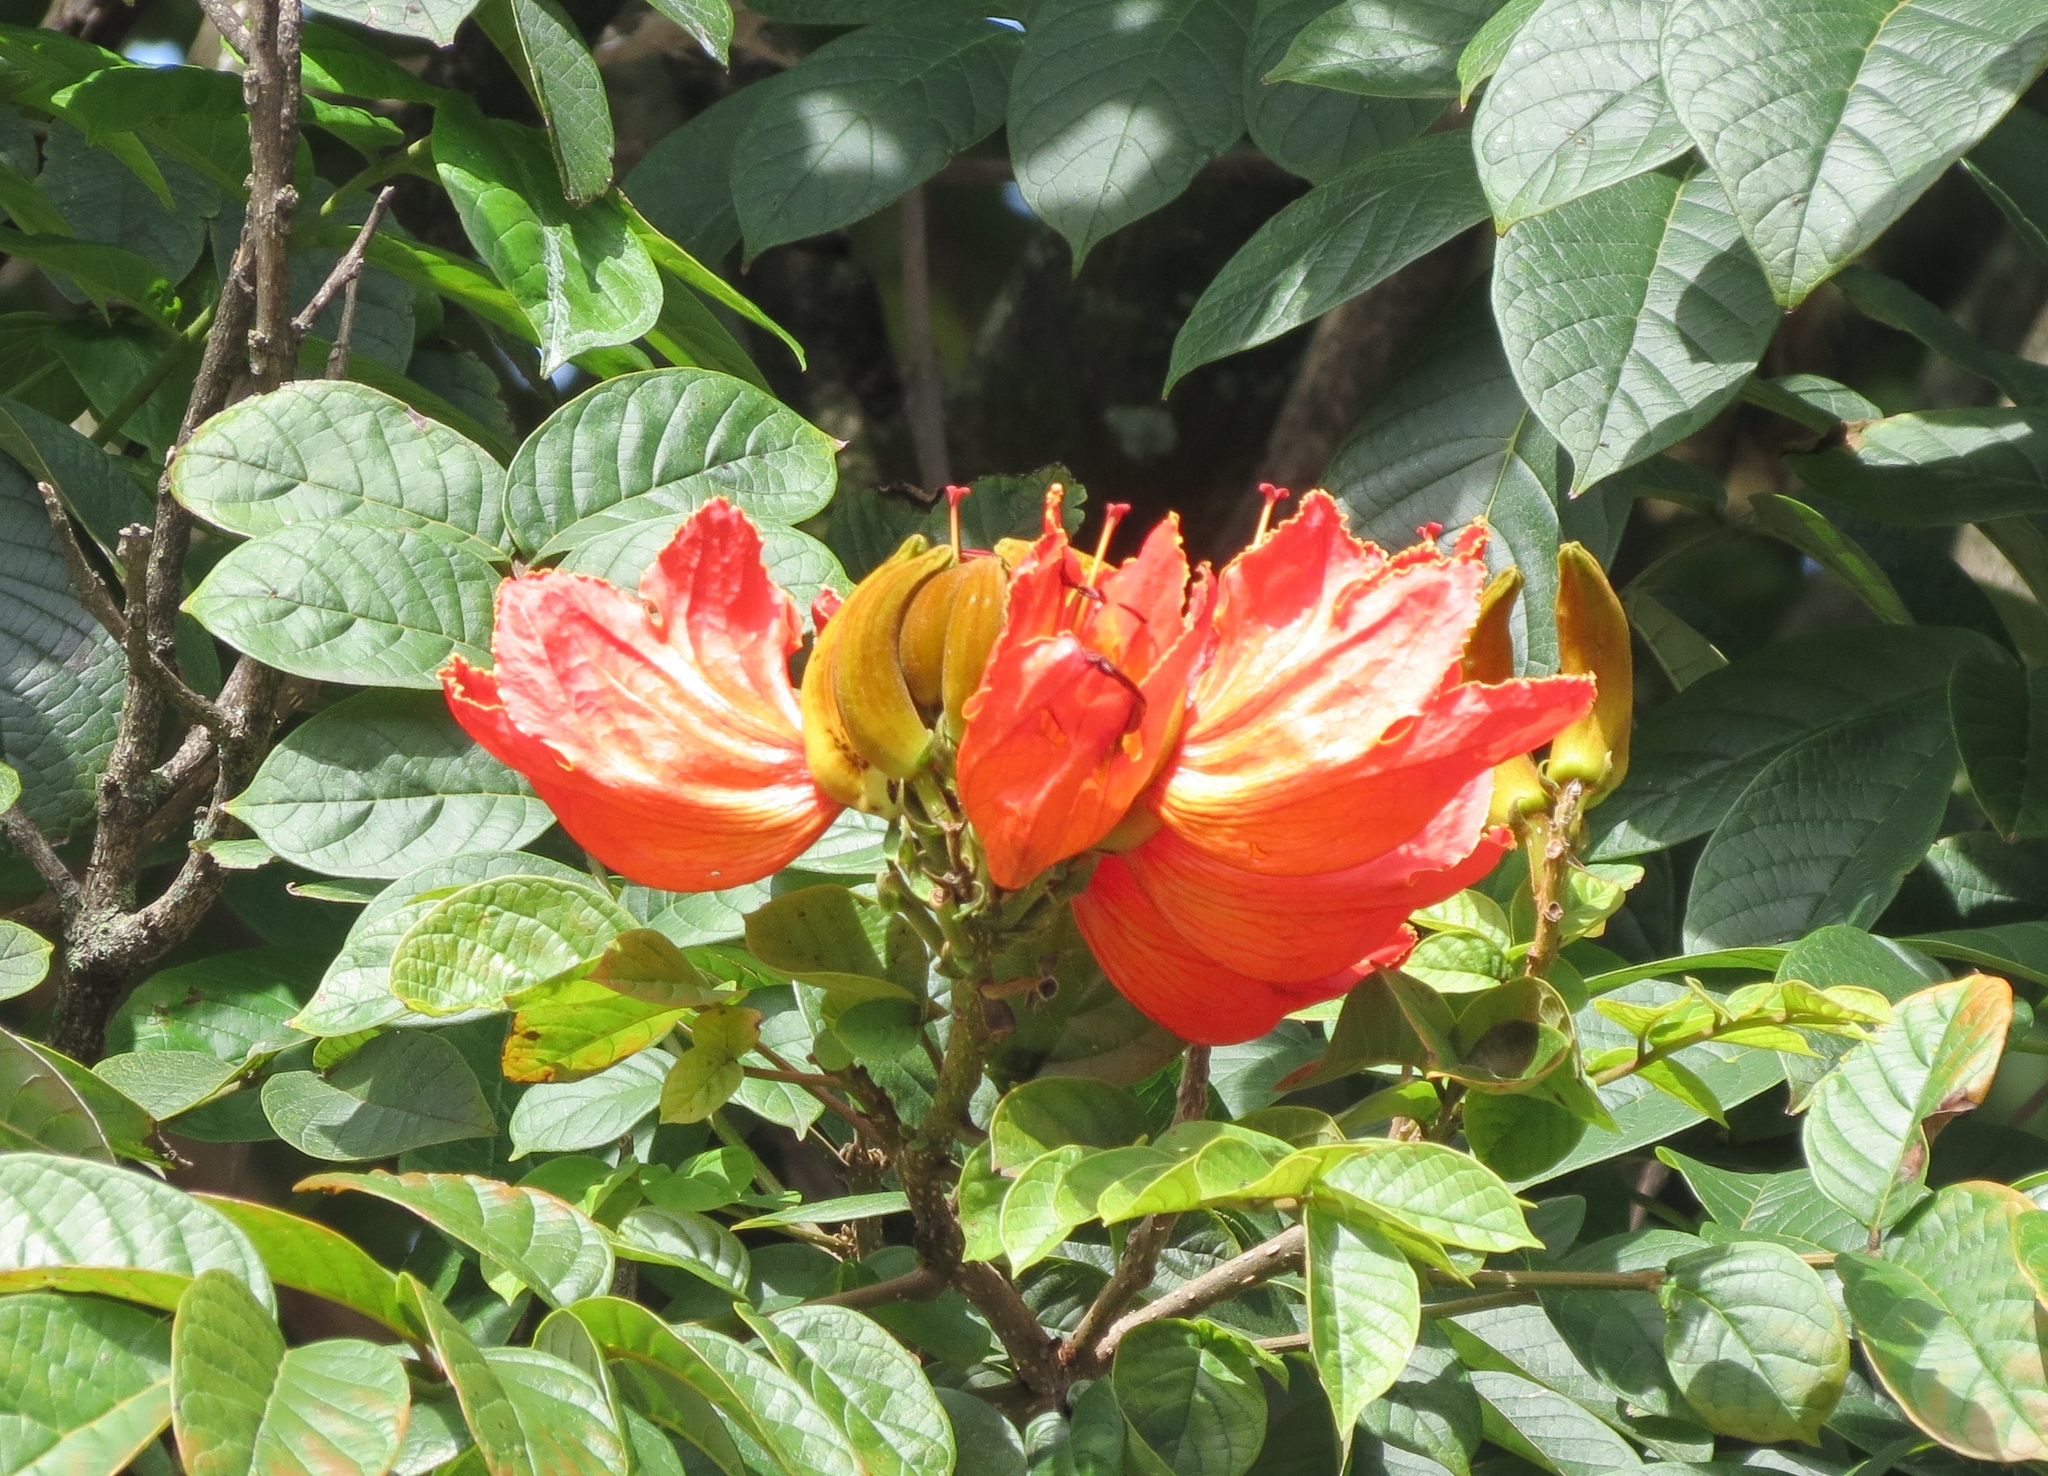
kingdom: Plantae
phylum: Tracheophyta
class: Magnoliopsida
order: Lamiales
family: Bignoniaceae
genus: Spathodea
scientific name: Spathodea campanulata
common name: African tuliptree
